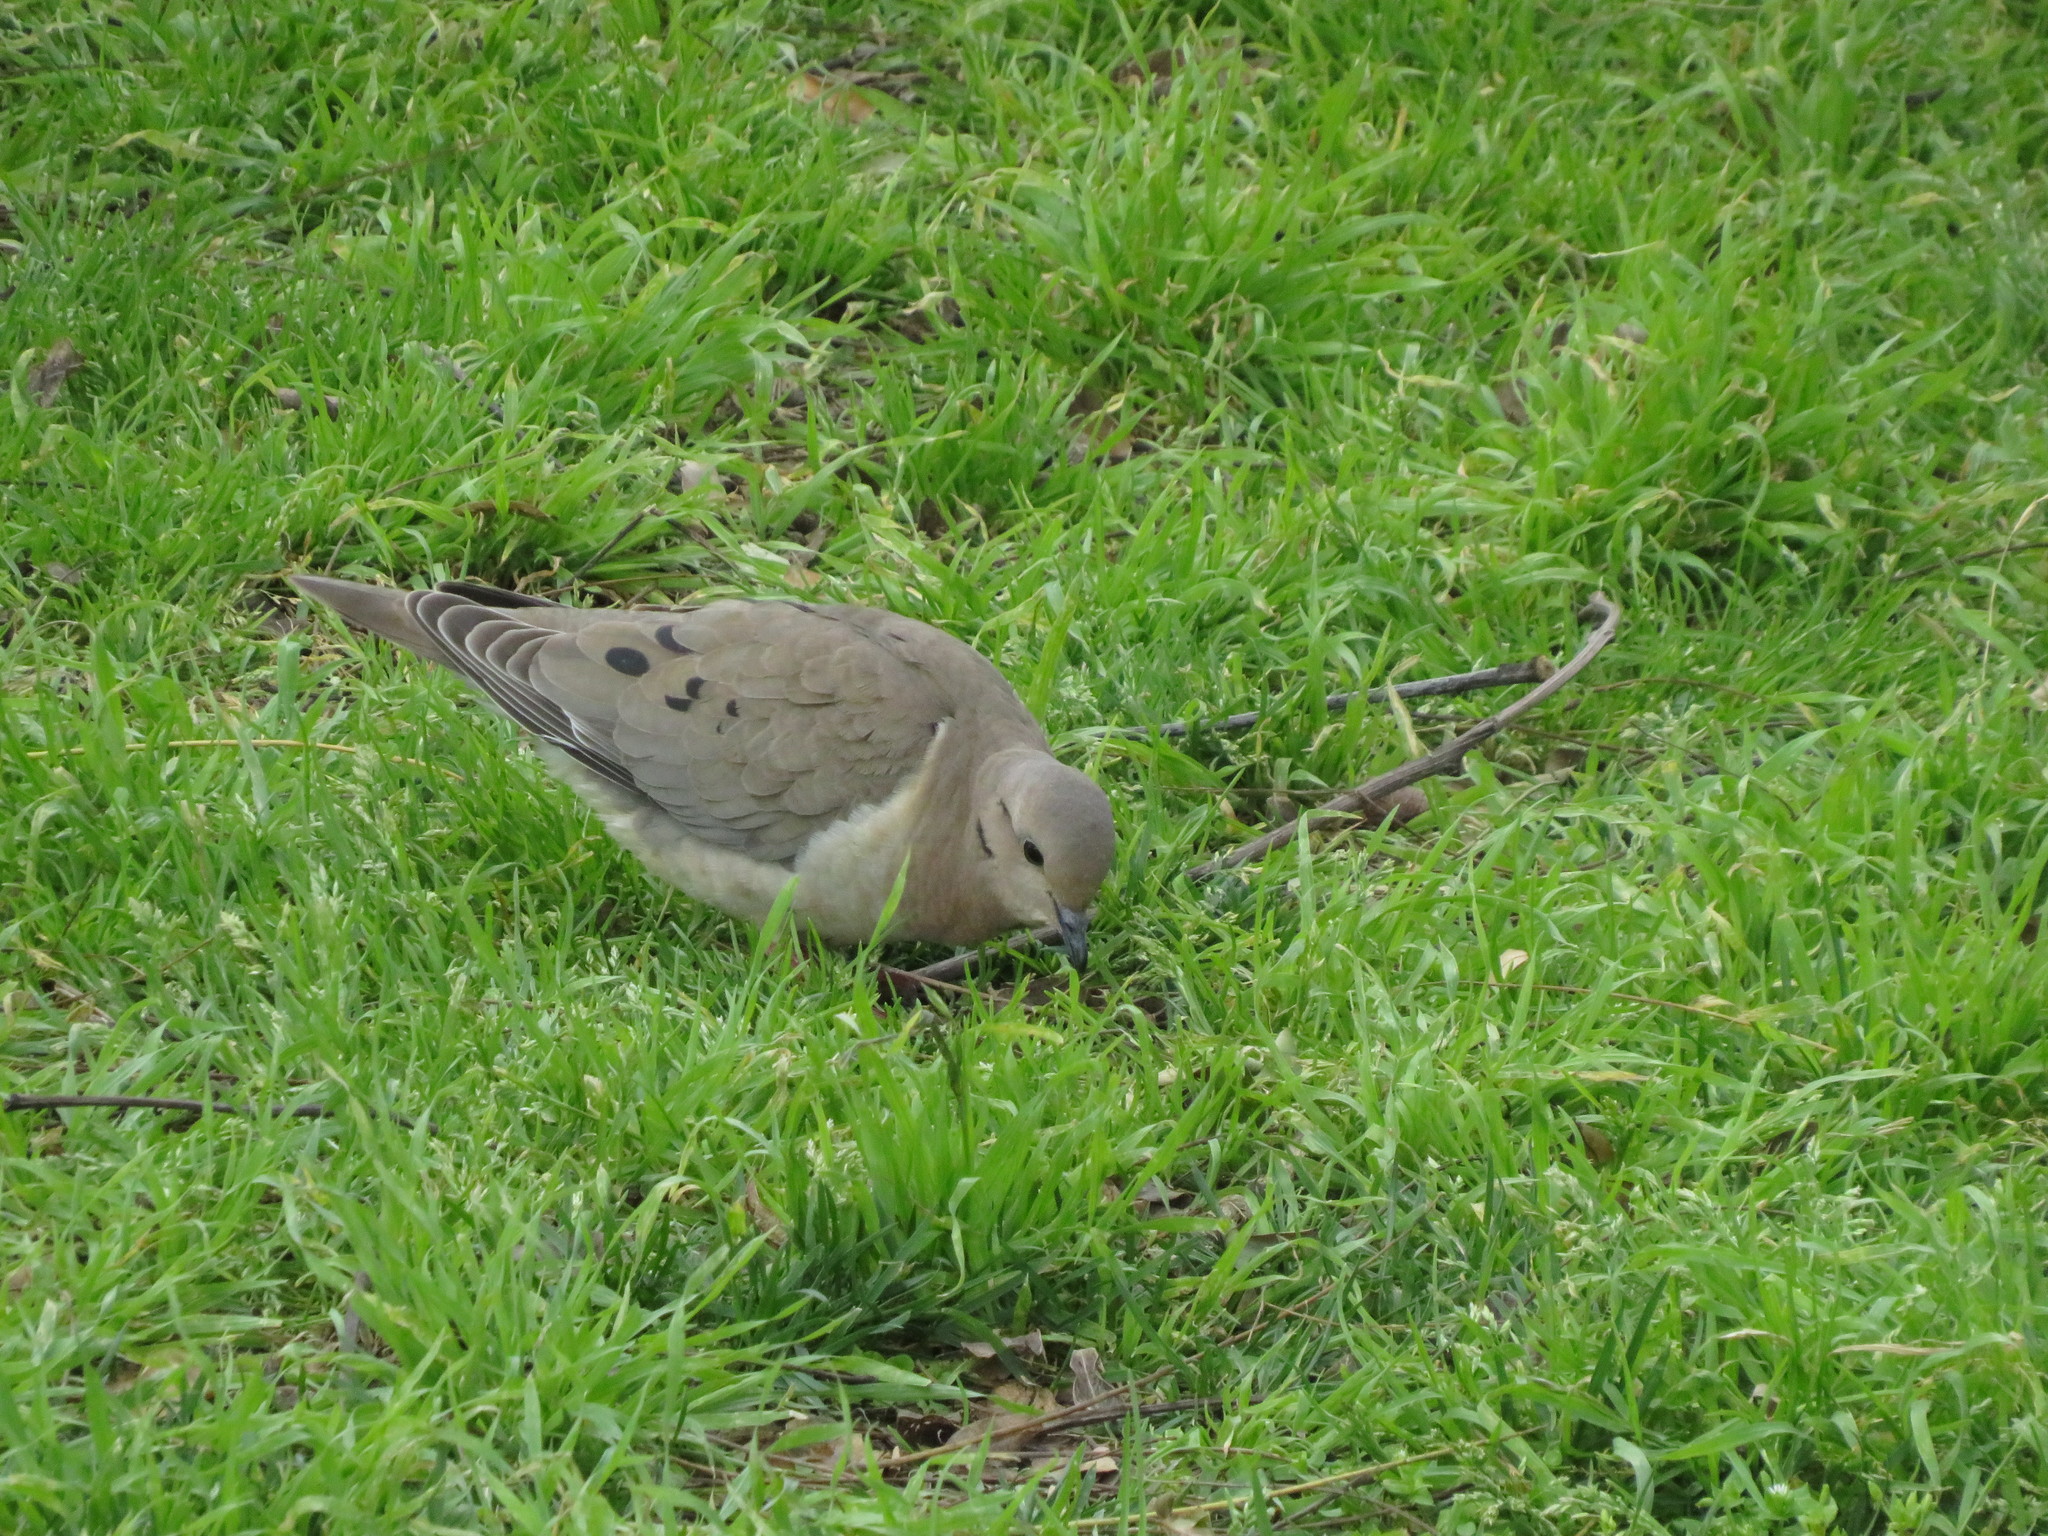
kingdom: Animalia
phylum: Chordata
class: Aves
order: Columbiformes
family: Columbidae
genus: Zenaida
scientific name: Zenaida auriculata
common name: Eared dove
